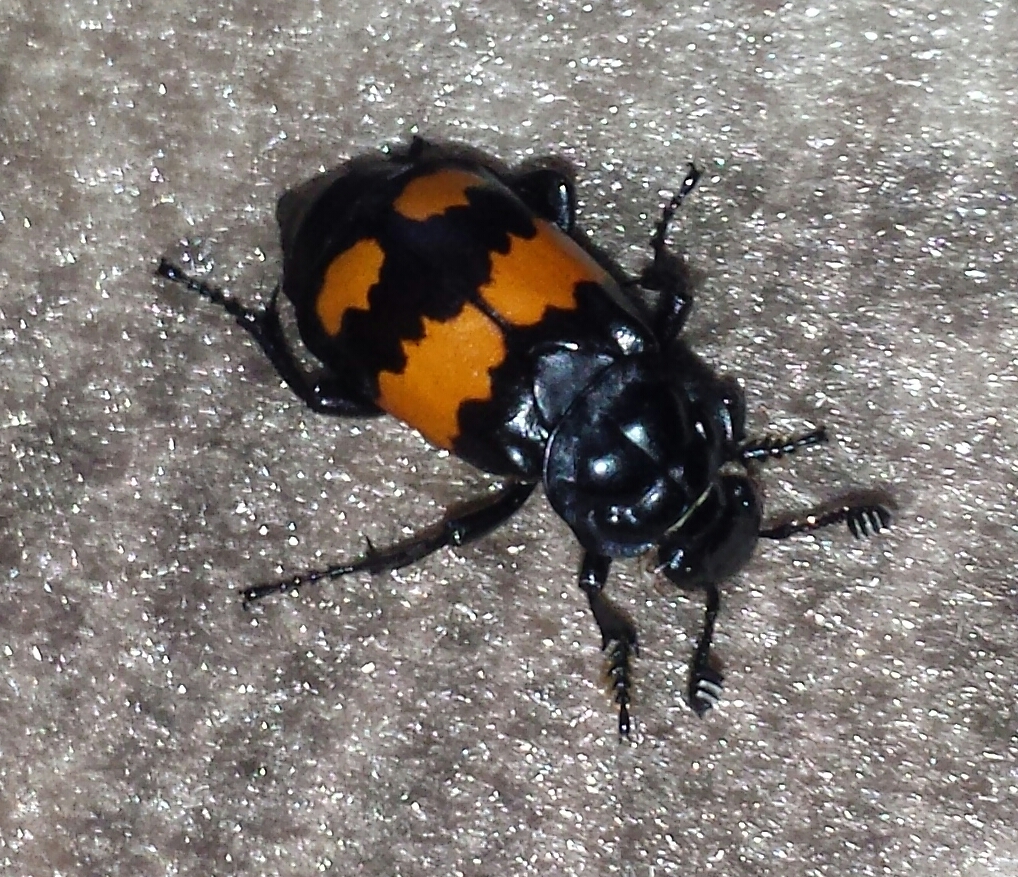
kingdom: Animalia
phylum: Arthropoda
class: Insecta
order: Coleoptera
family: Staphylinidae
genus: Nicrophorus
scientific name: Nicrophorus defodiens
